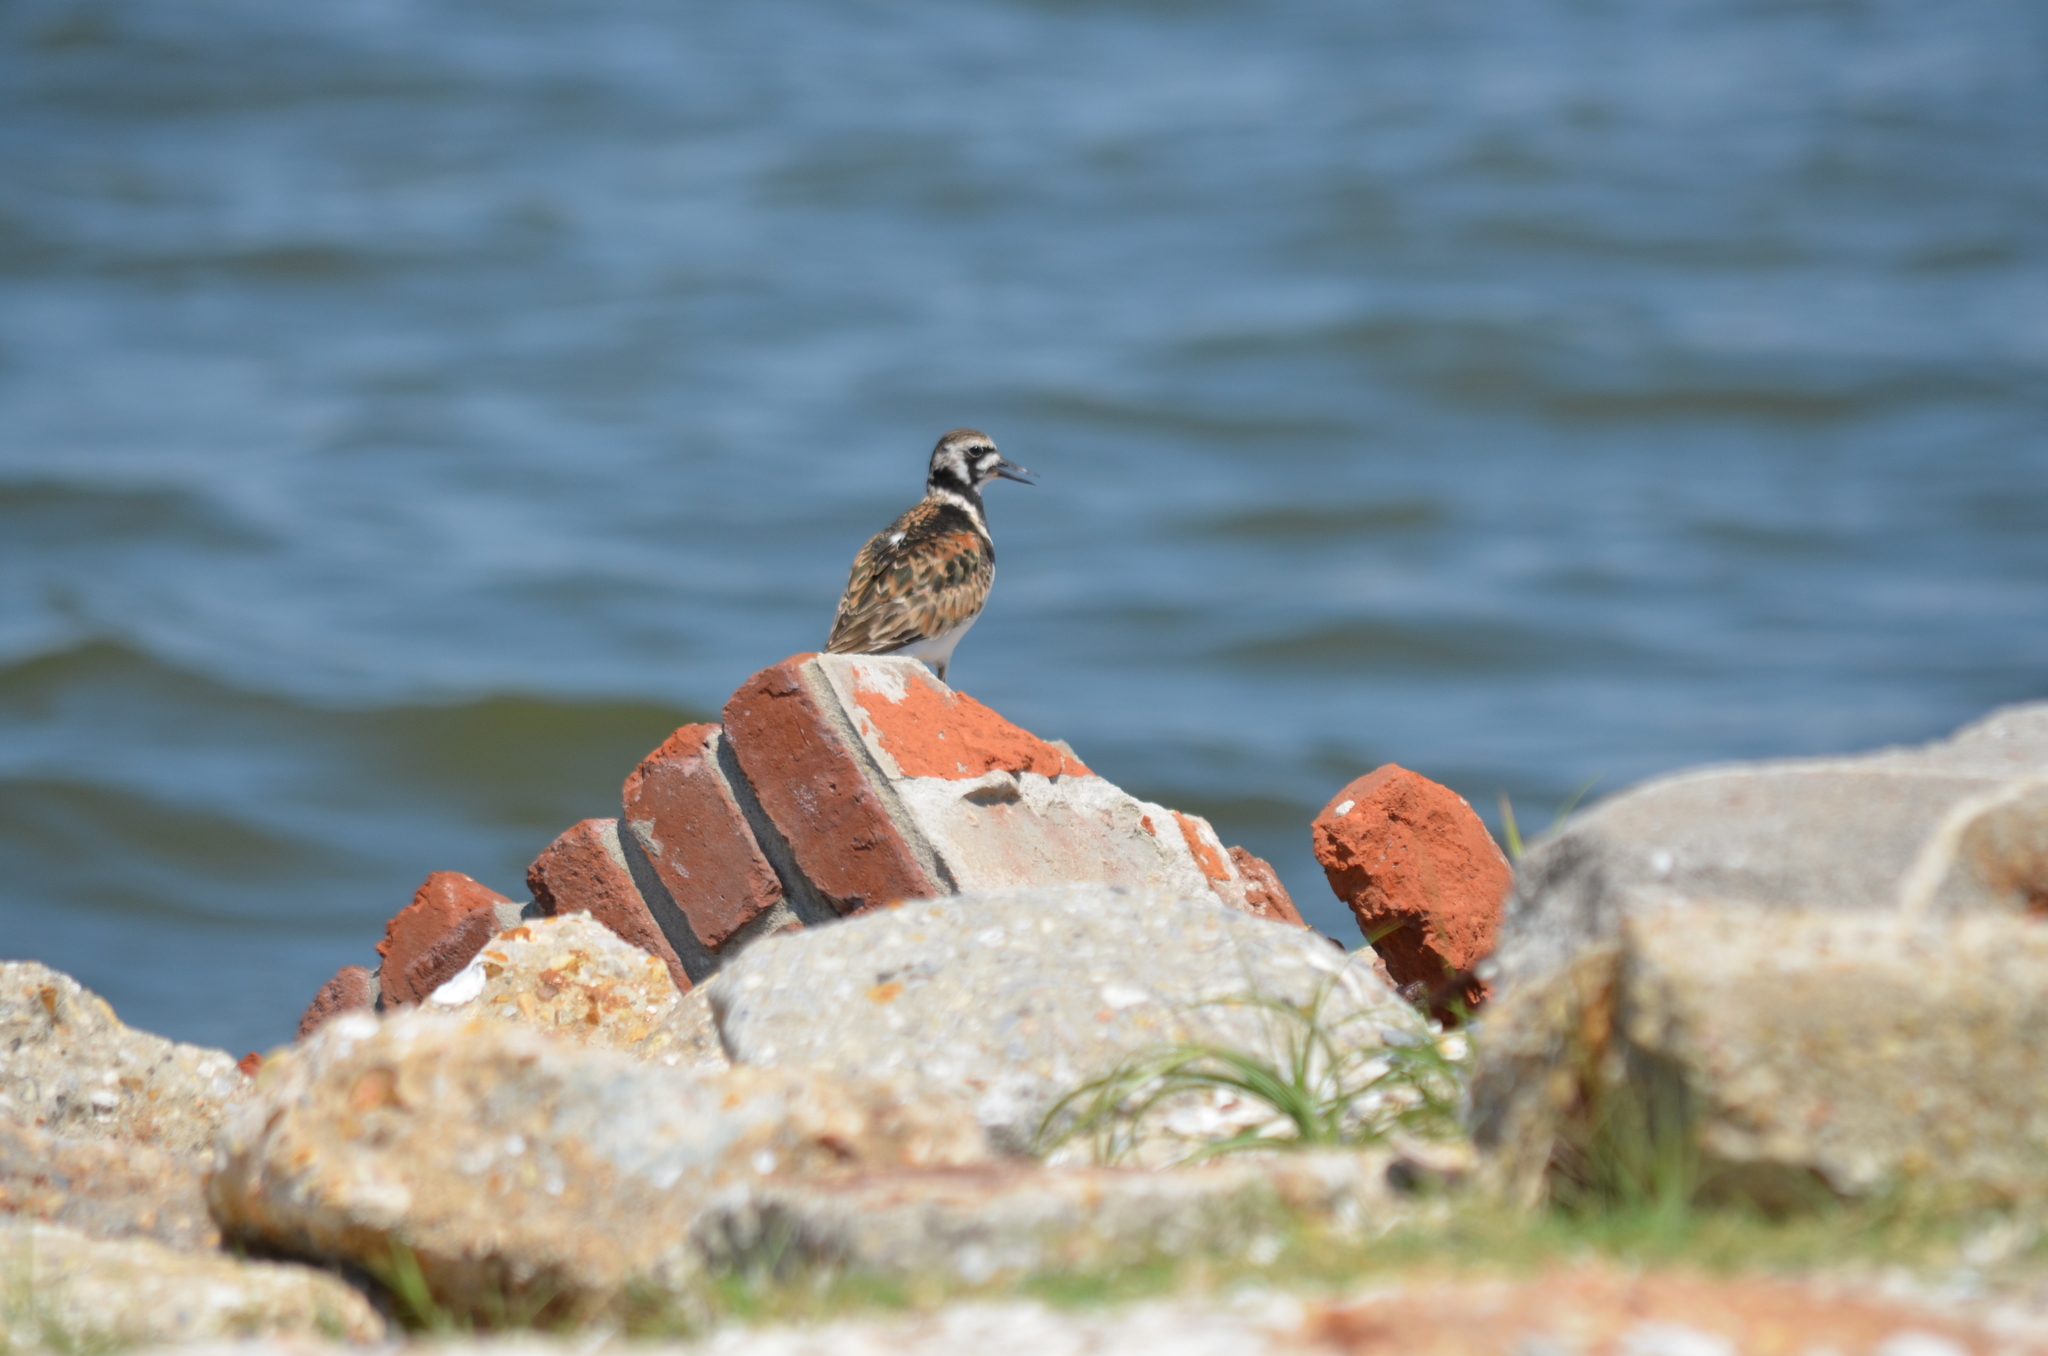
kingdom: Animalia
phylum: Chordata
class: Aves
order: Charadriiformes
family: Scolopacidae
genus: Arenaria
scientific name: Arenaria interpres
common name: Ruddy turnstone
